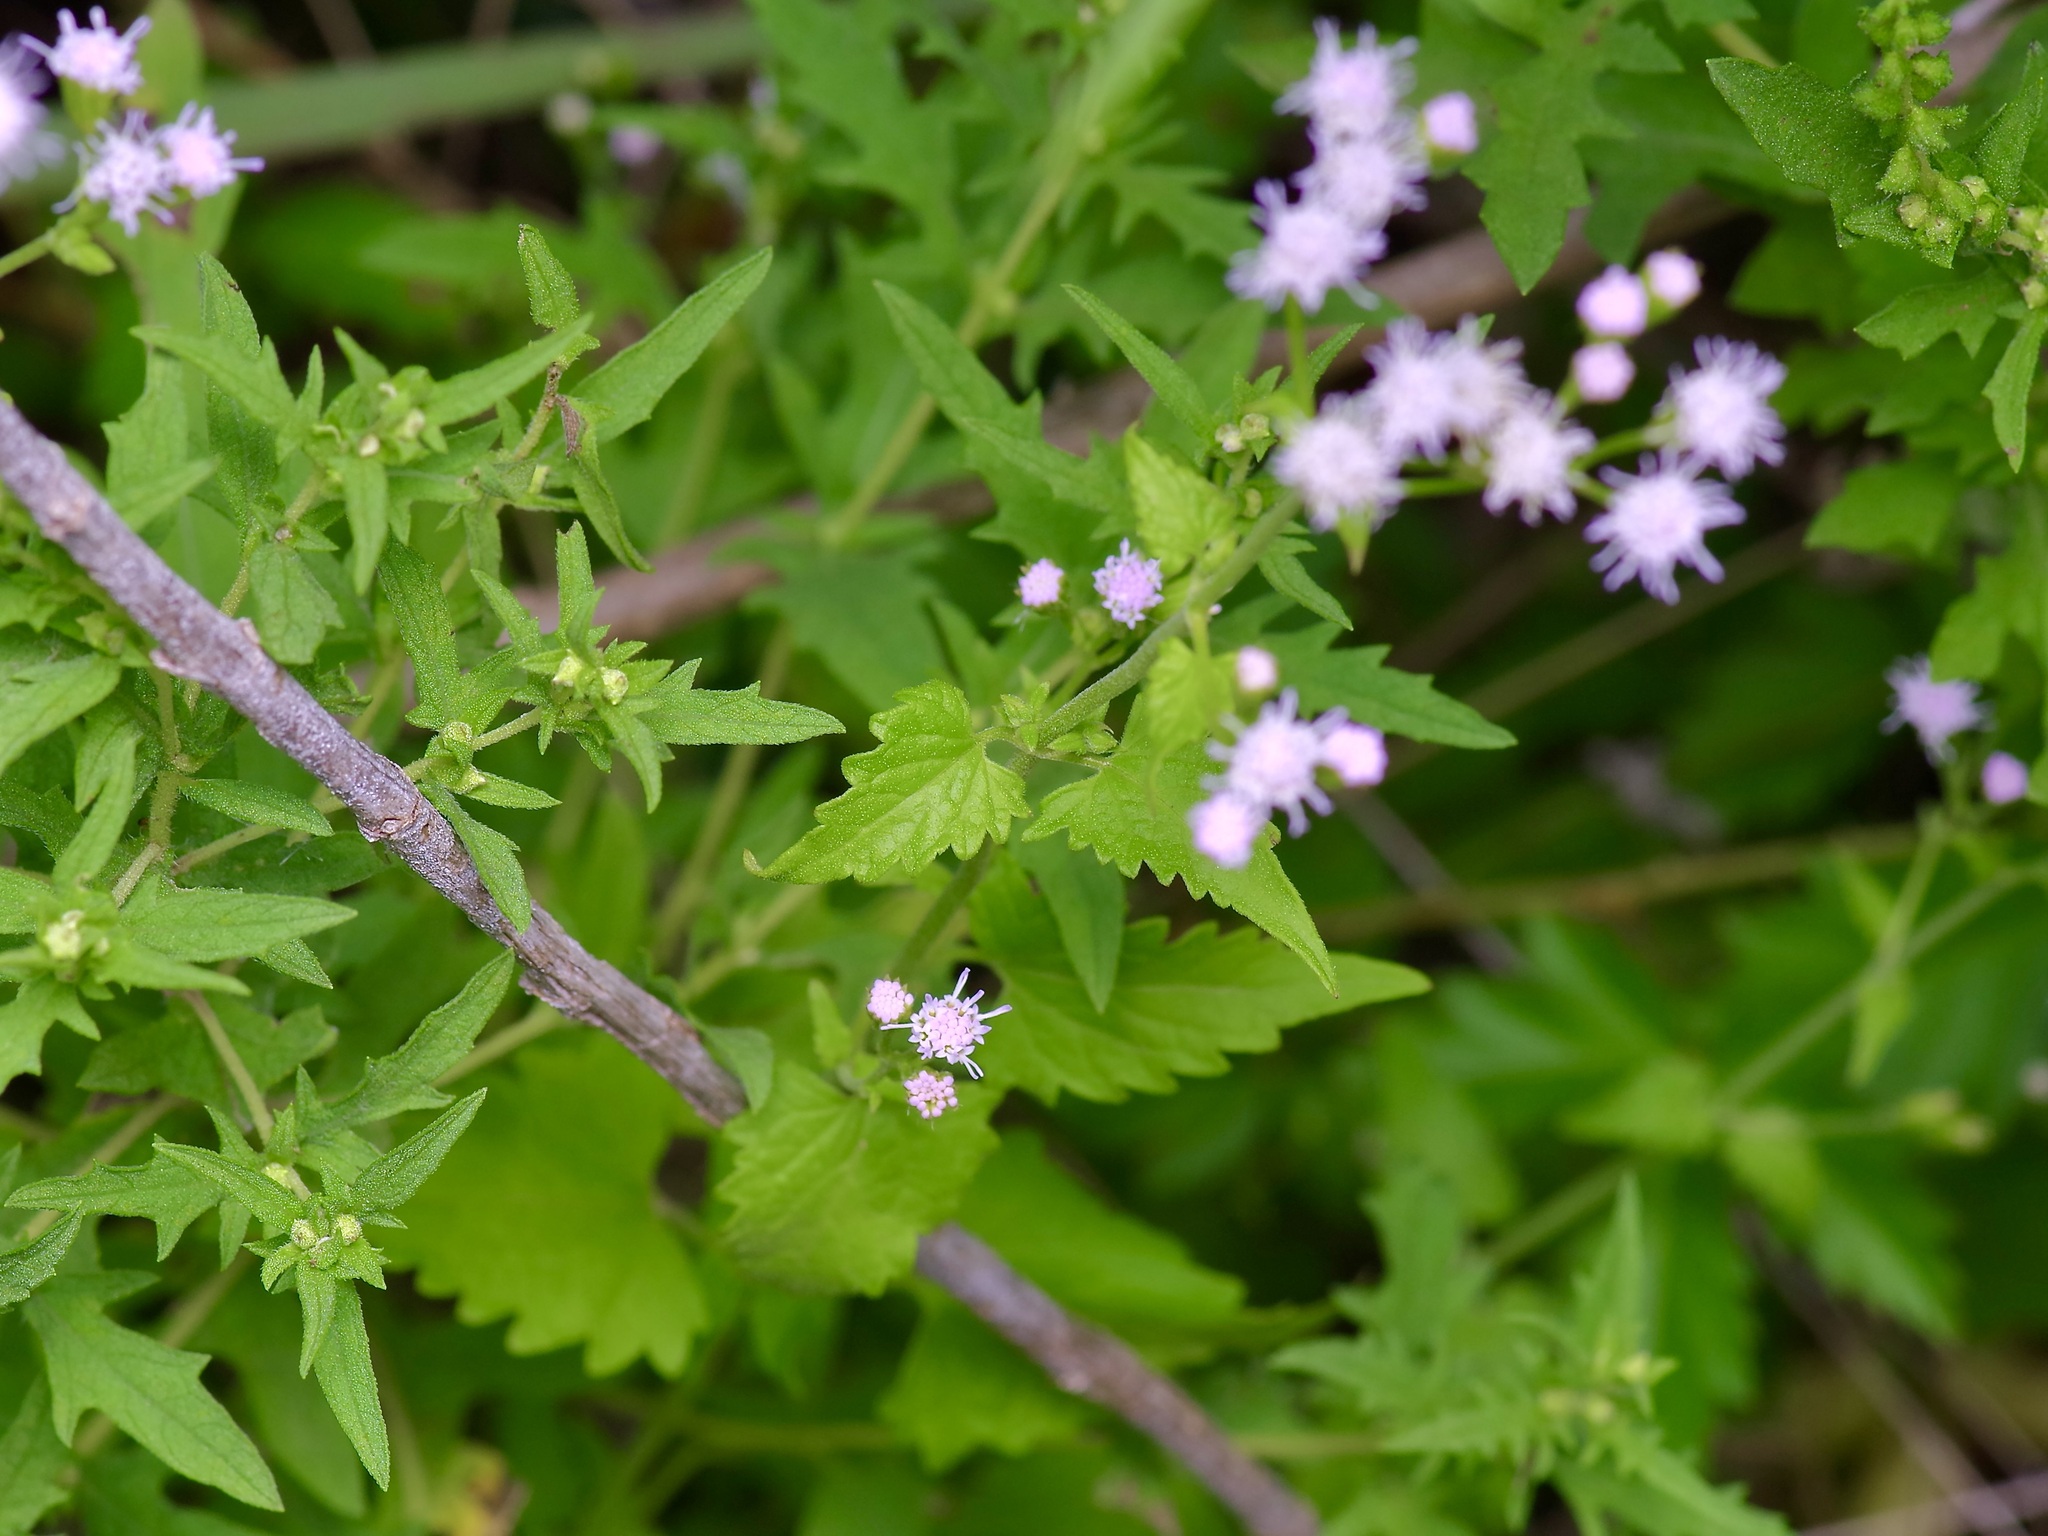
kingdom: Plantae
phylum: Tracheophyta
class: Magnoliopsida
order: Asterales
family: Asteraceae
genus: Fleischmannia
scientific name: Fleischmannia incarnata
